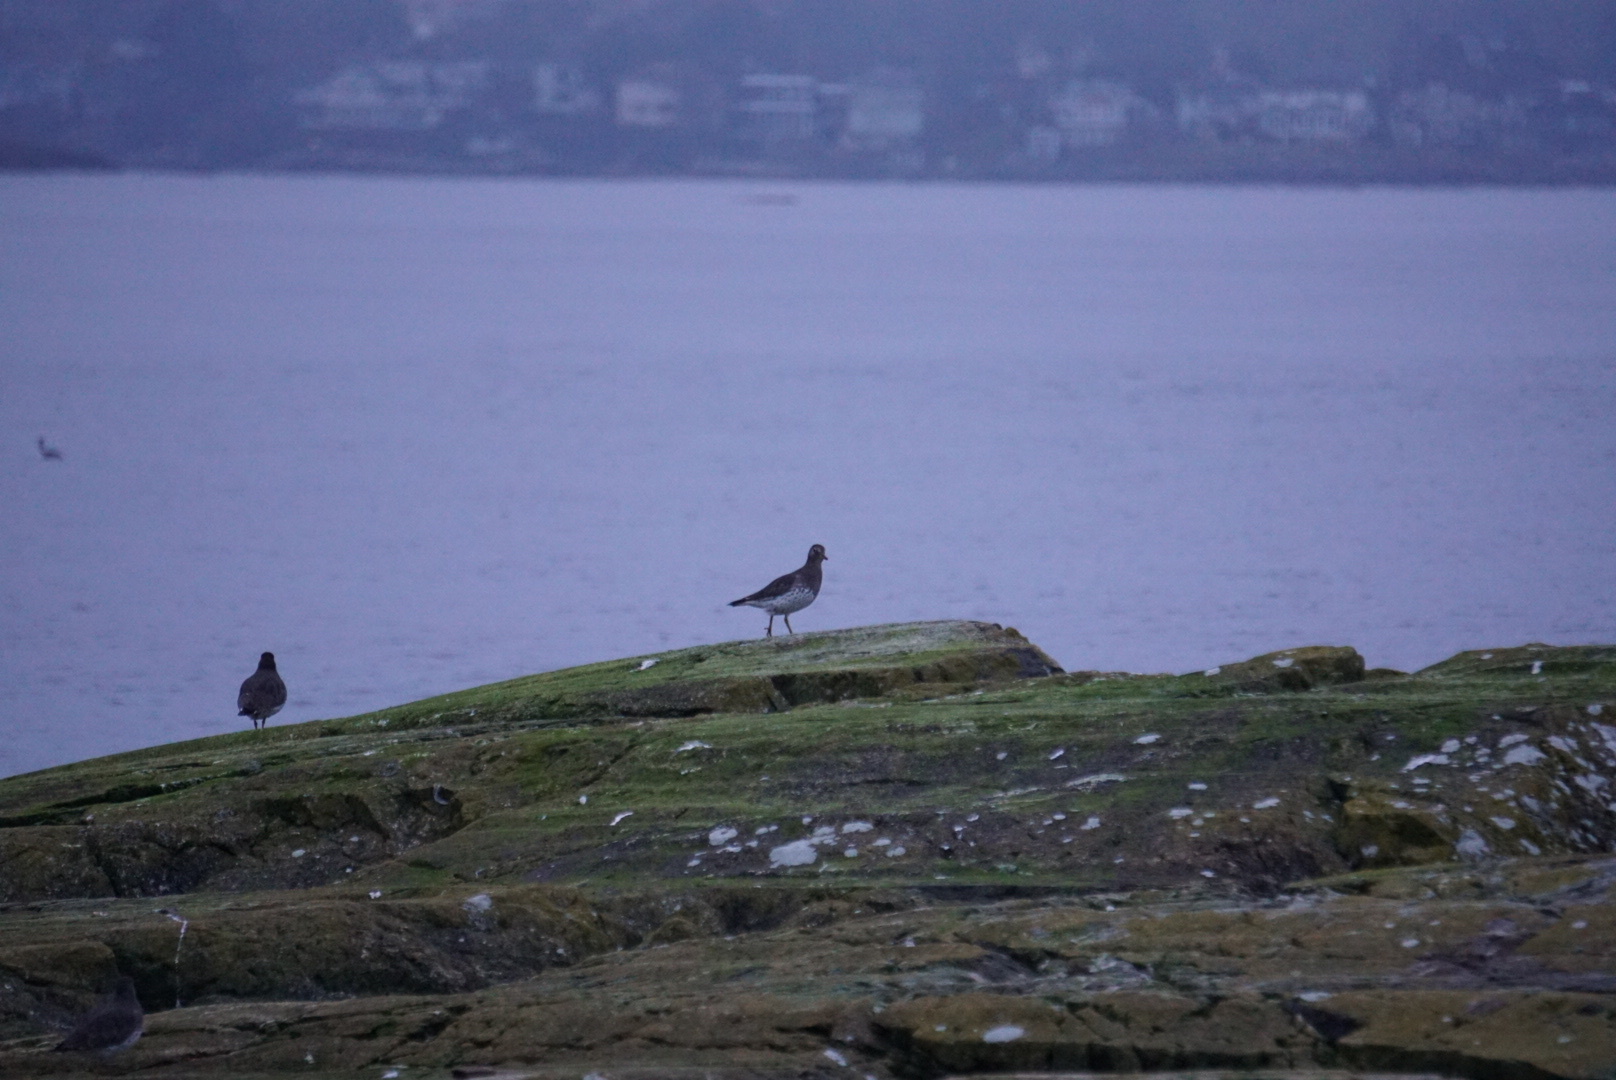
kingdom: Animalia
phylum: Chordata
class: Aves
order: Charadriiformes
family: Scolopacidae
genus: Calidris
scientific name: Calidris virgata
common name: Surfbird
